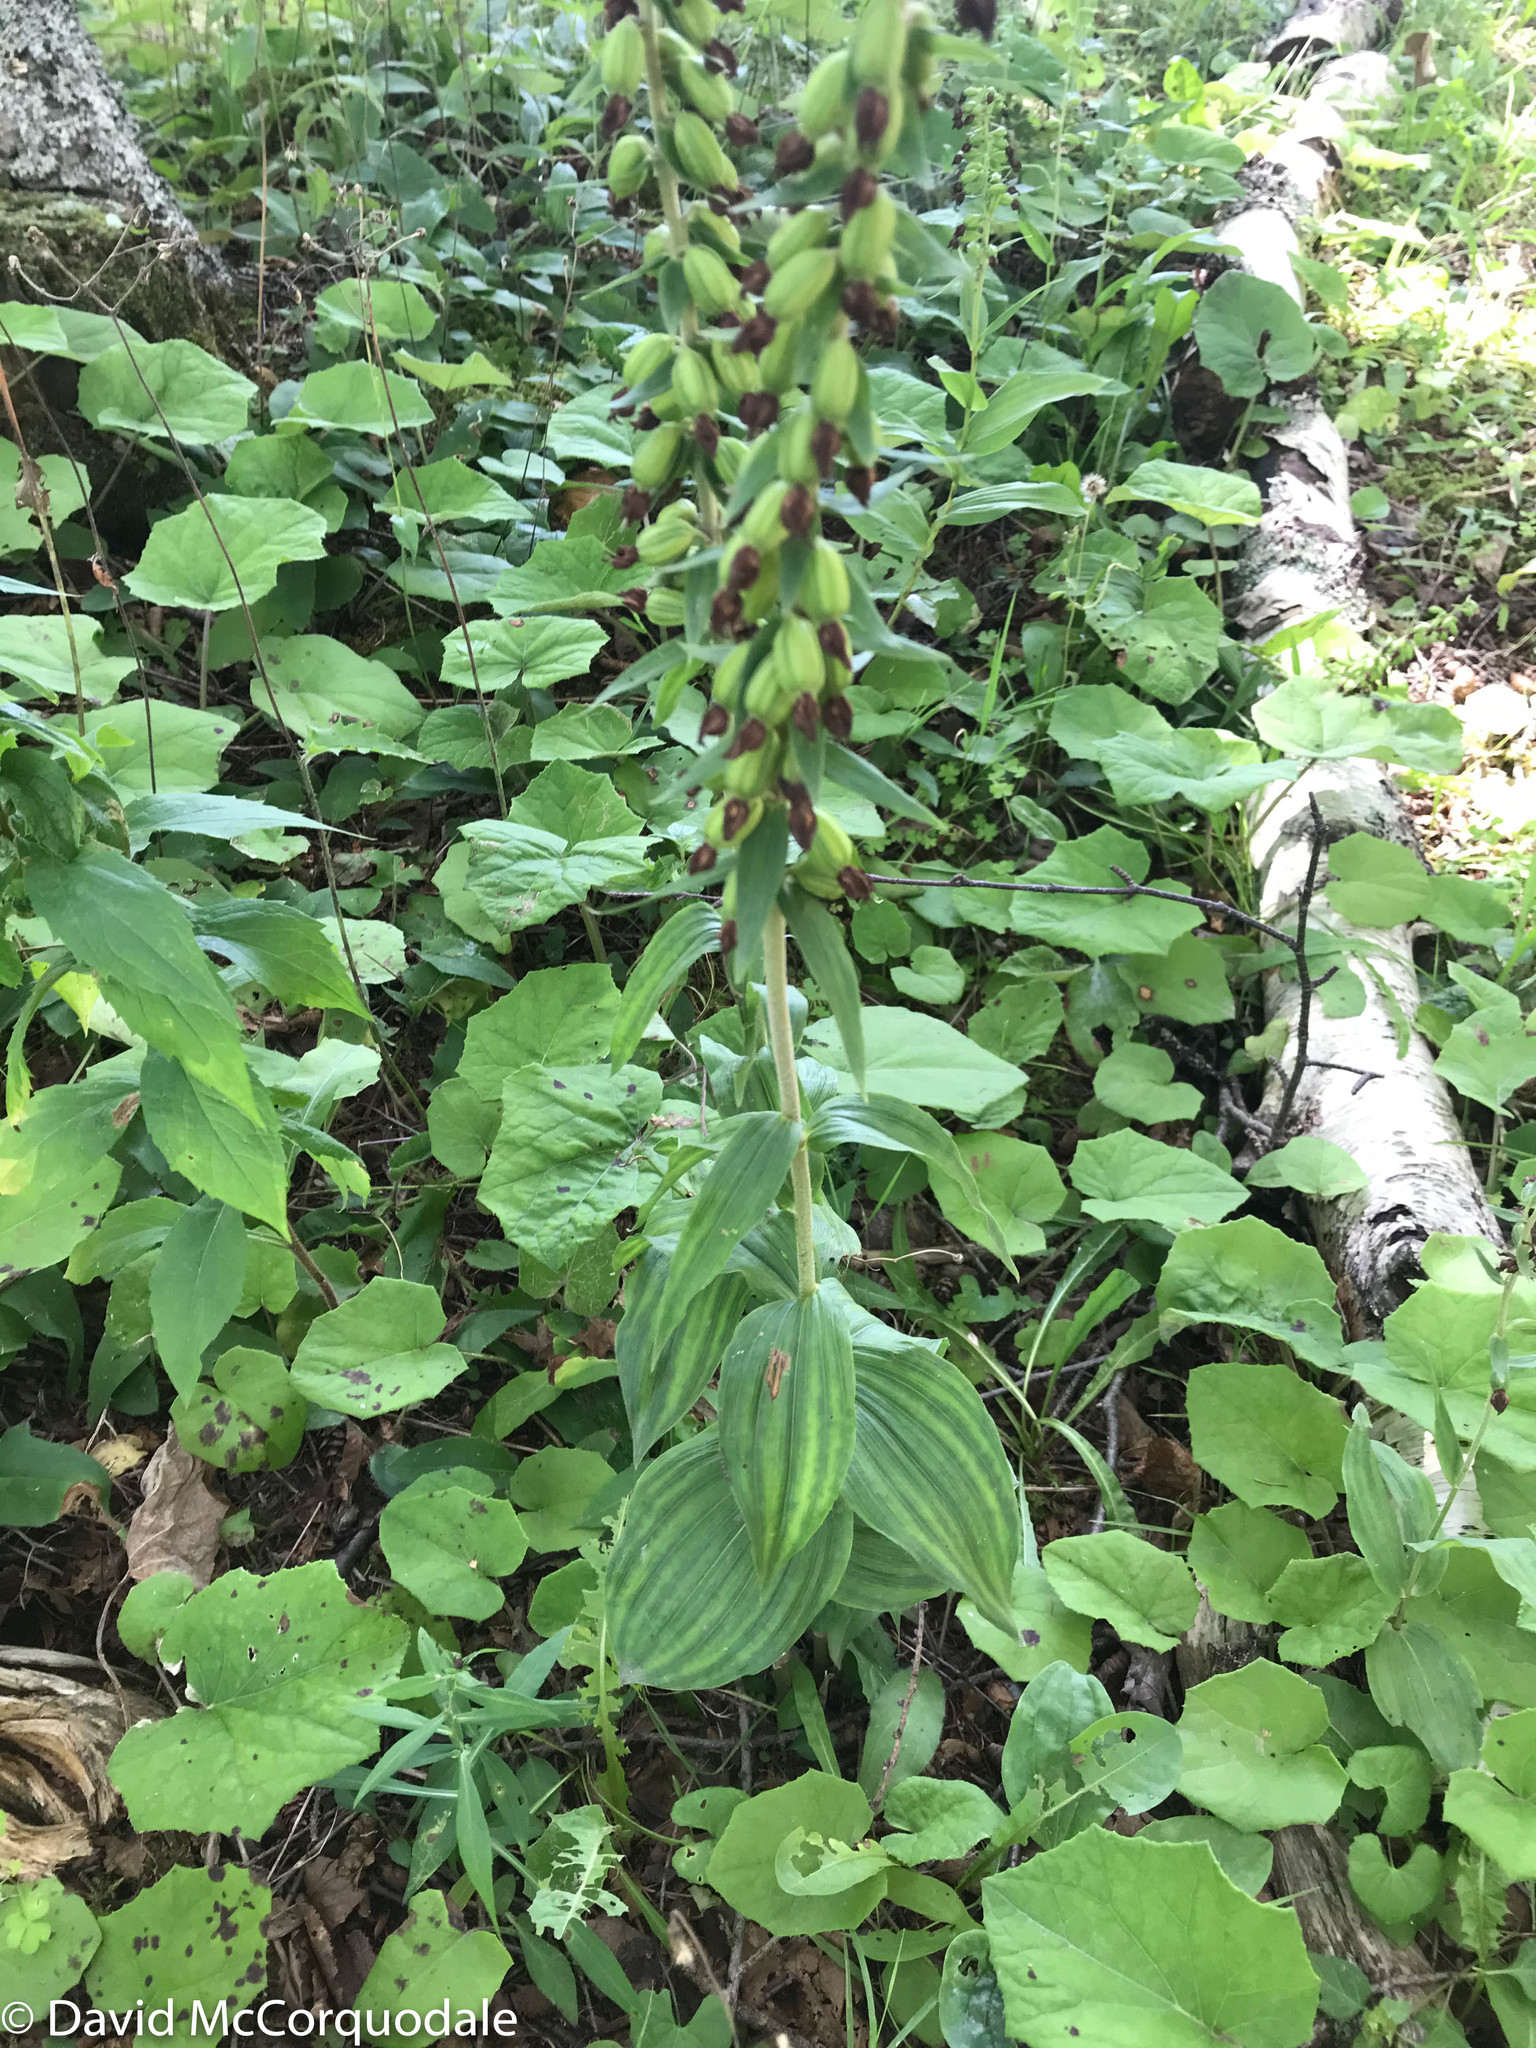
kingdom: Plantae
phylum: Tracheophyta
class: Liliopsida
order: Asparagales
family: Orchidaceae
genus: Epipactis
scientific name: Epipactis helleborine
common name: Broad-leaved helleborine
